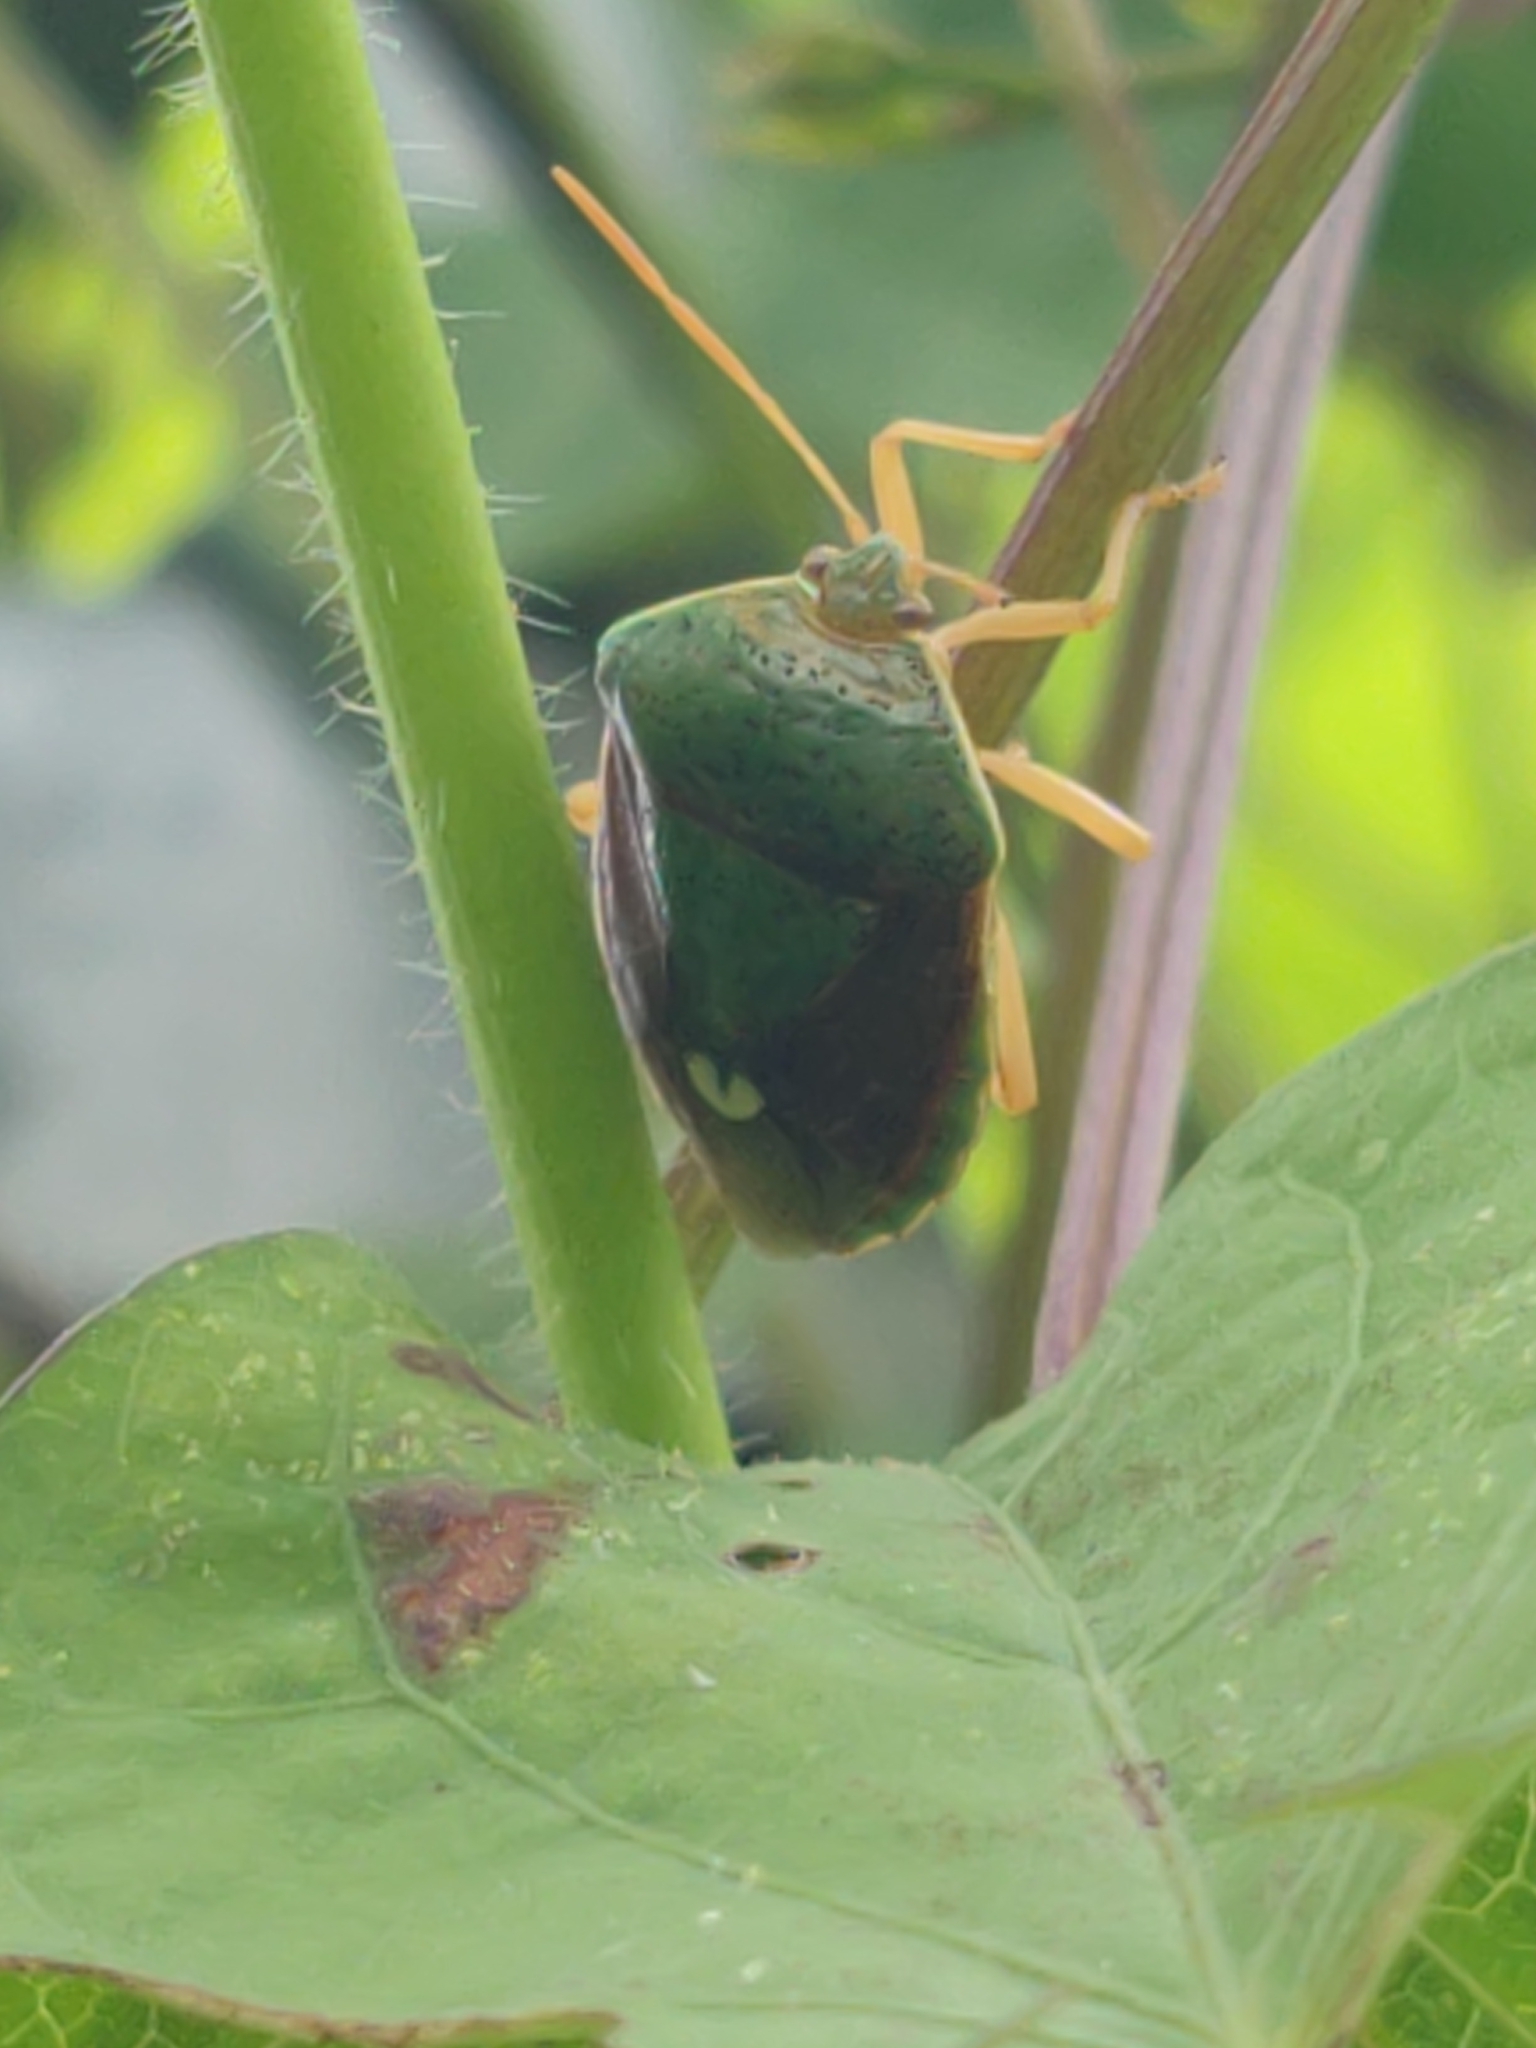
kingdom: Animalia
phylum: Arthropoda
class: Insecta
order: Hemiptera
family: Pentatomidae
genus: Edessa
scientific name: Edessa bifida
